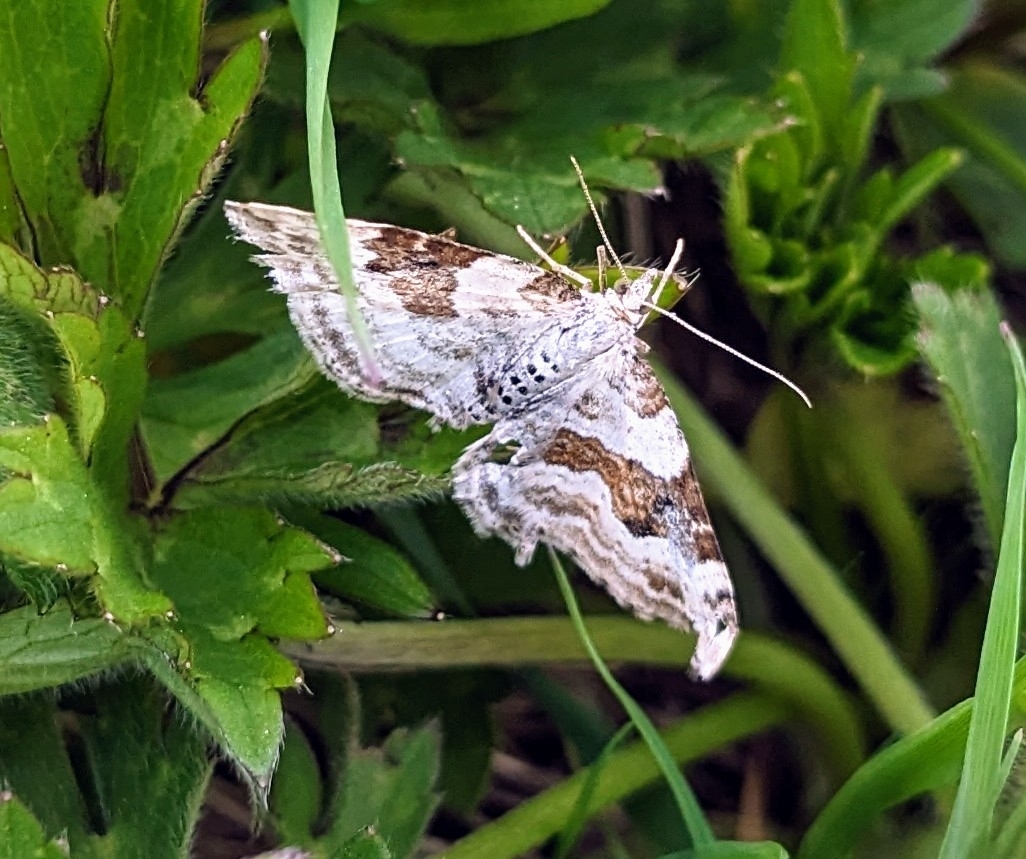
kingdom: Animalia
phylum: Arthropoda
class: Insecta
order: Lepidoptera
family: Geometridae
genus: Xanthorhoe
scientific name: Xanthorhoe montanata
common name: Silver-ground carpet
